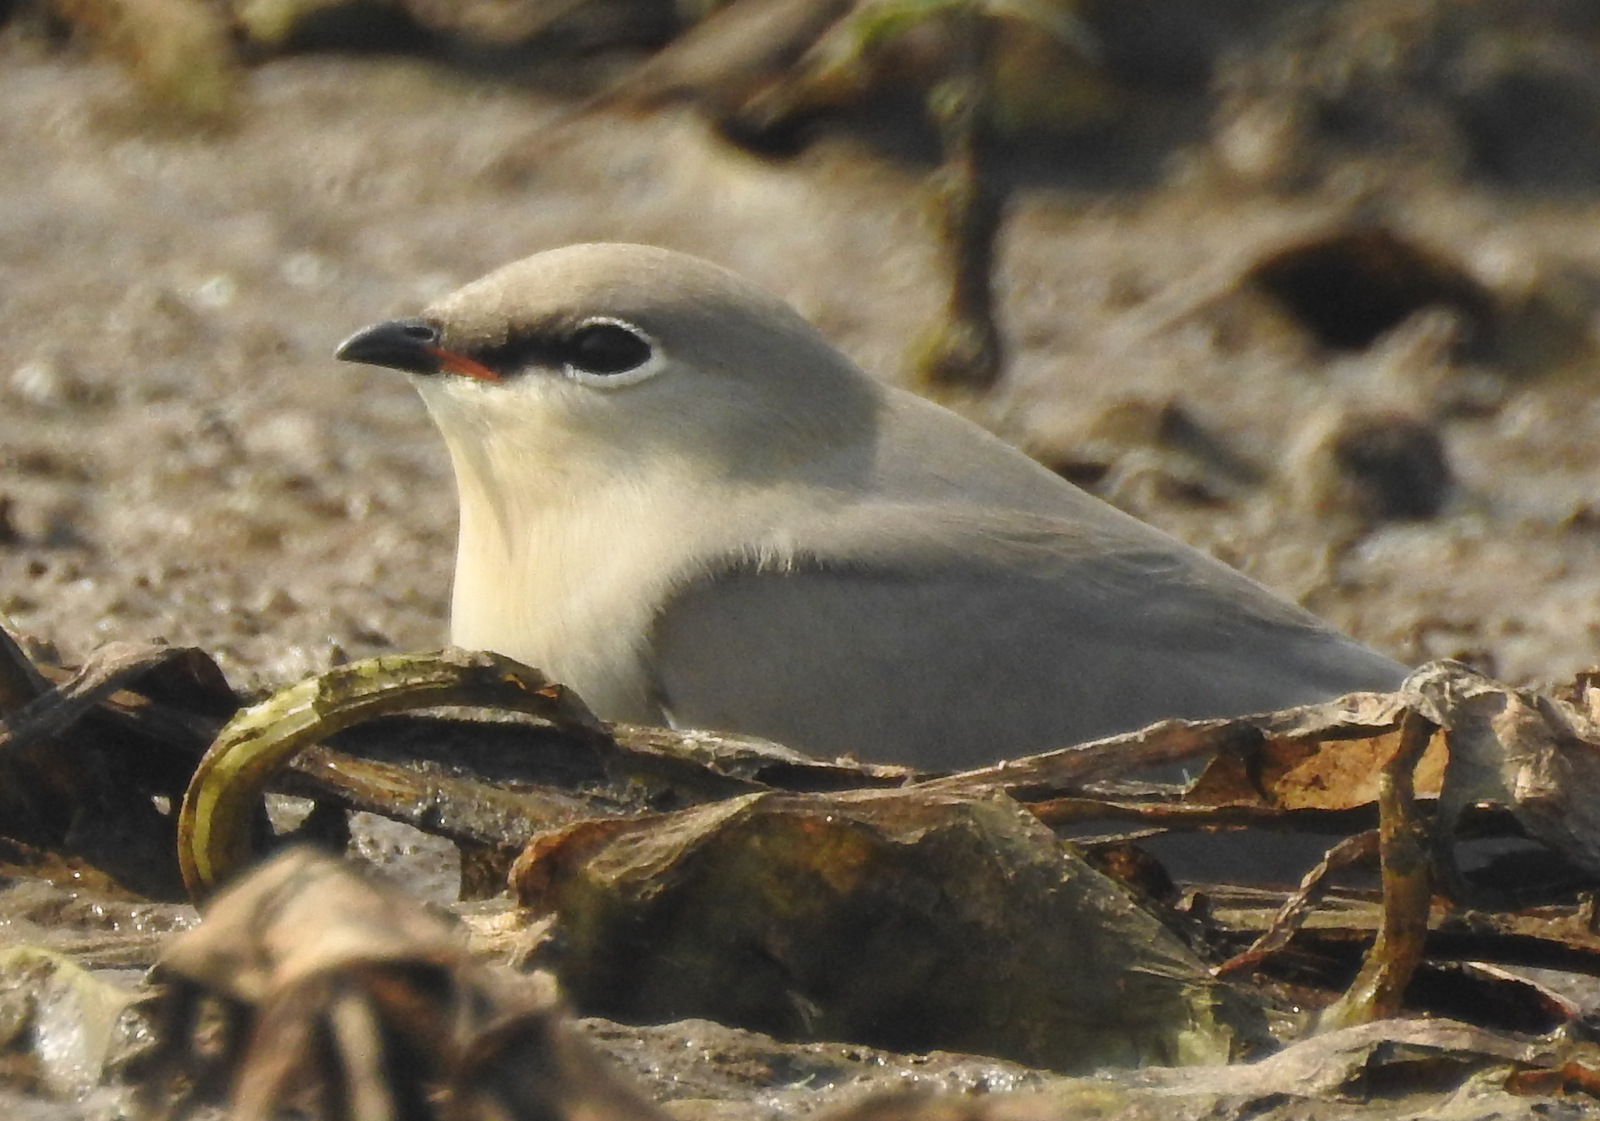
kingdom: Animalia
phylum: Chordata
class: Aves
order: Charadriiformes
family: Glareolidae
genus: Glareola
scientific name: Glareola lactea
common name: Small pratincole
